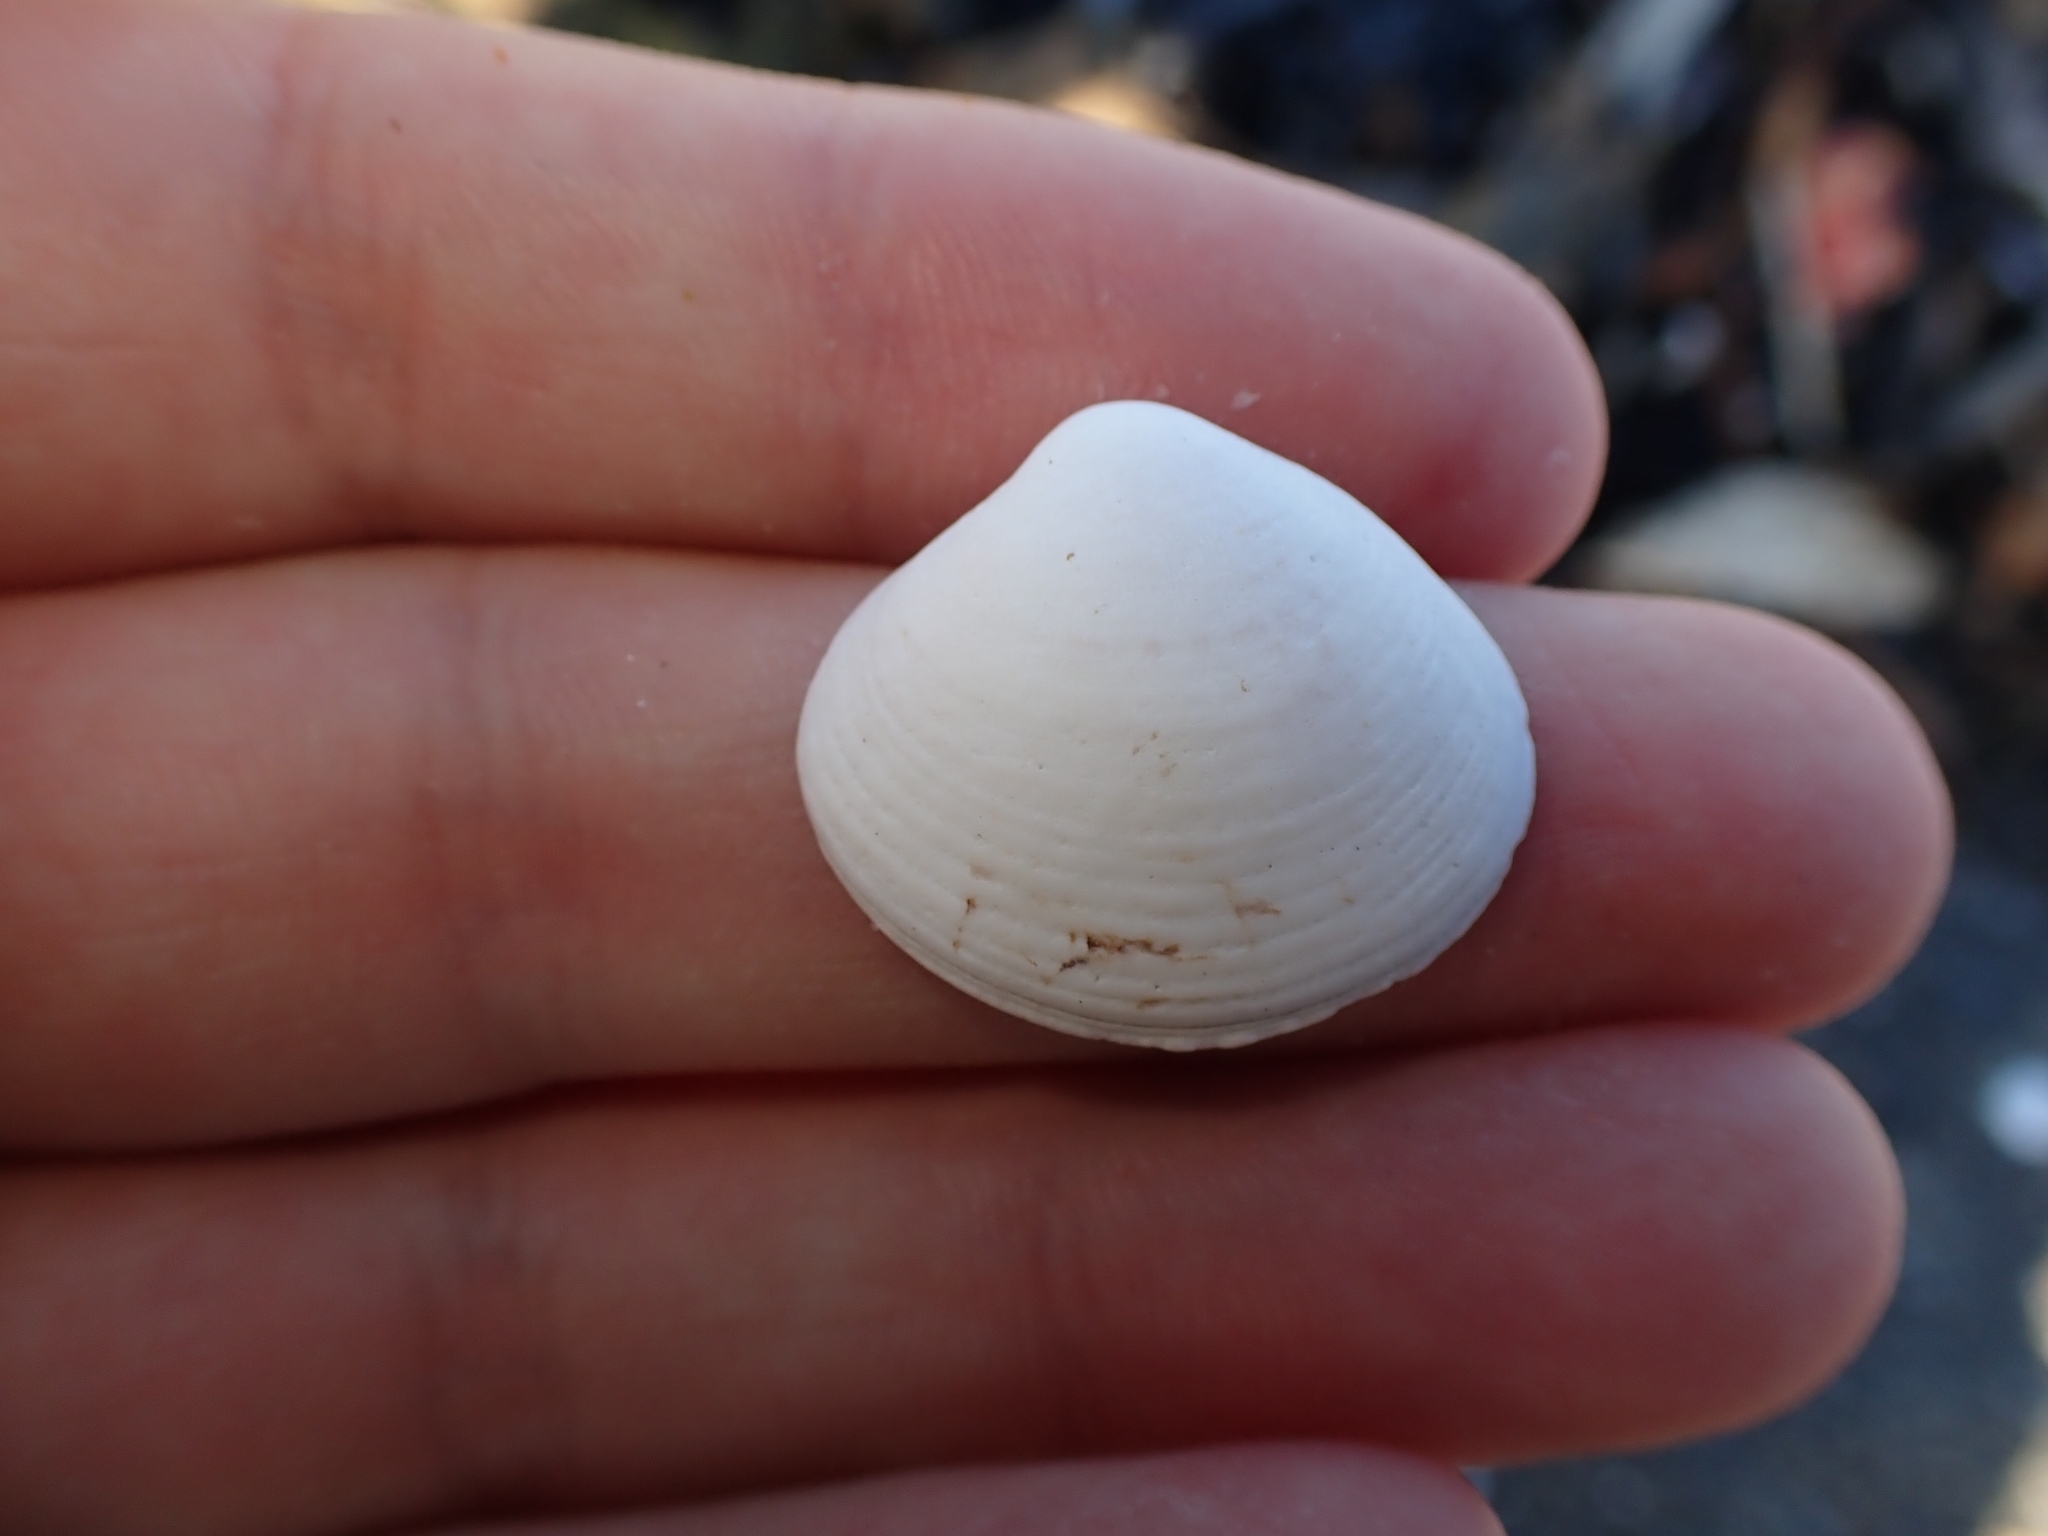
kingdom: Animalia
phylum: Mollusca
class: Bivalvia
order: Venerida
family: Veneridae
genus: Tawera
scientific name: Tawera spissa
